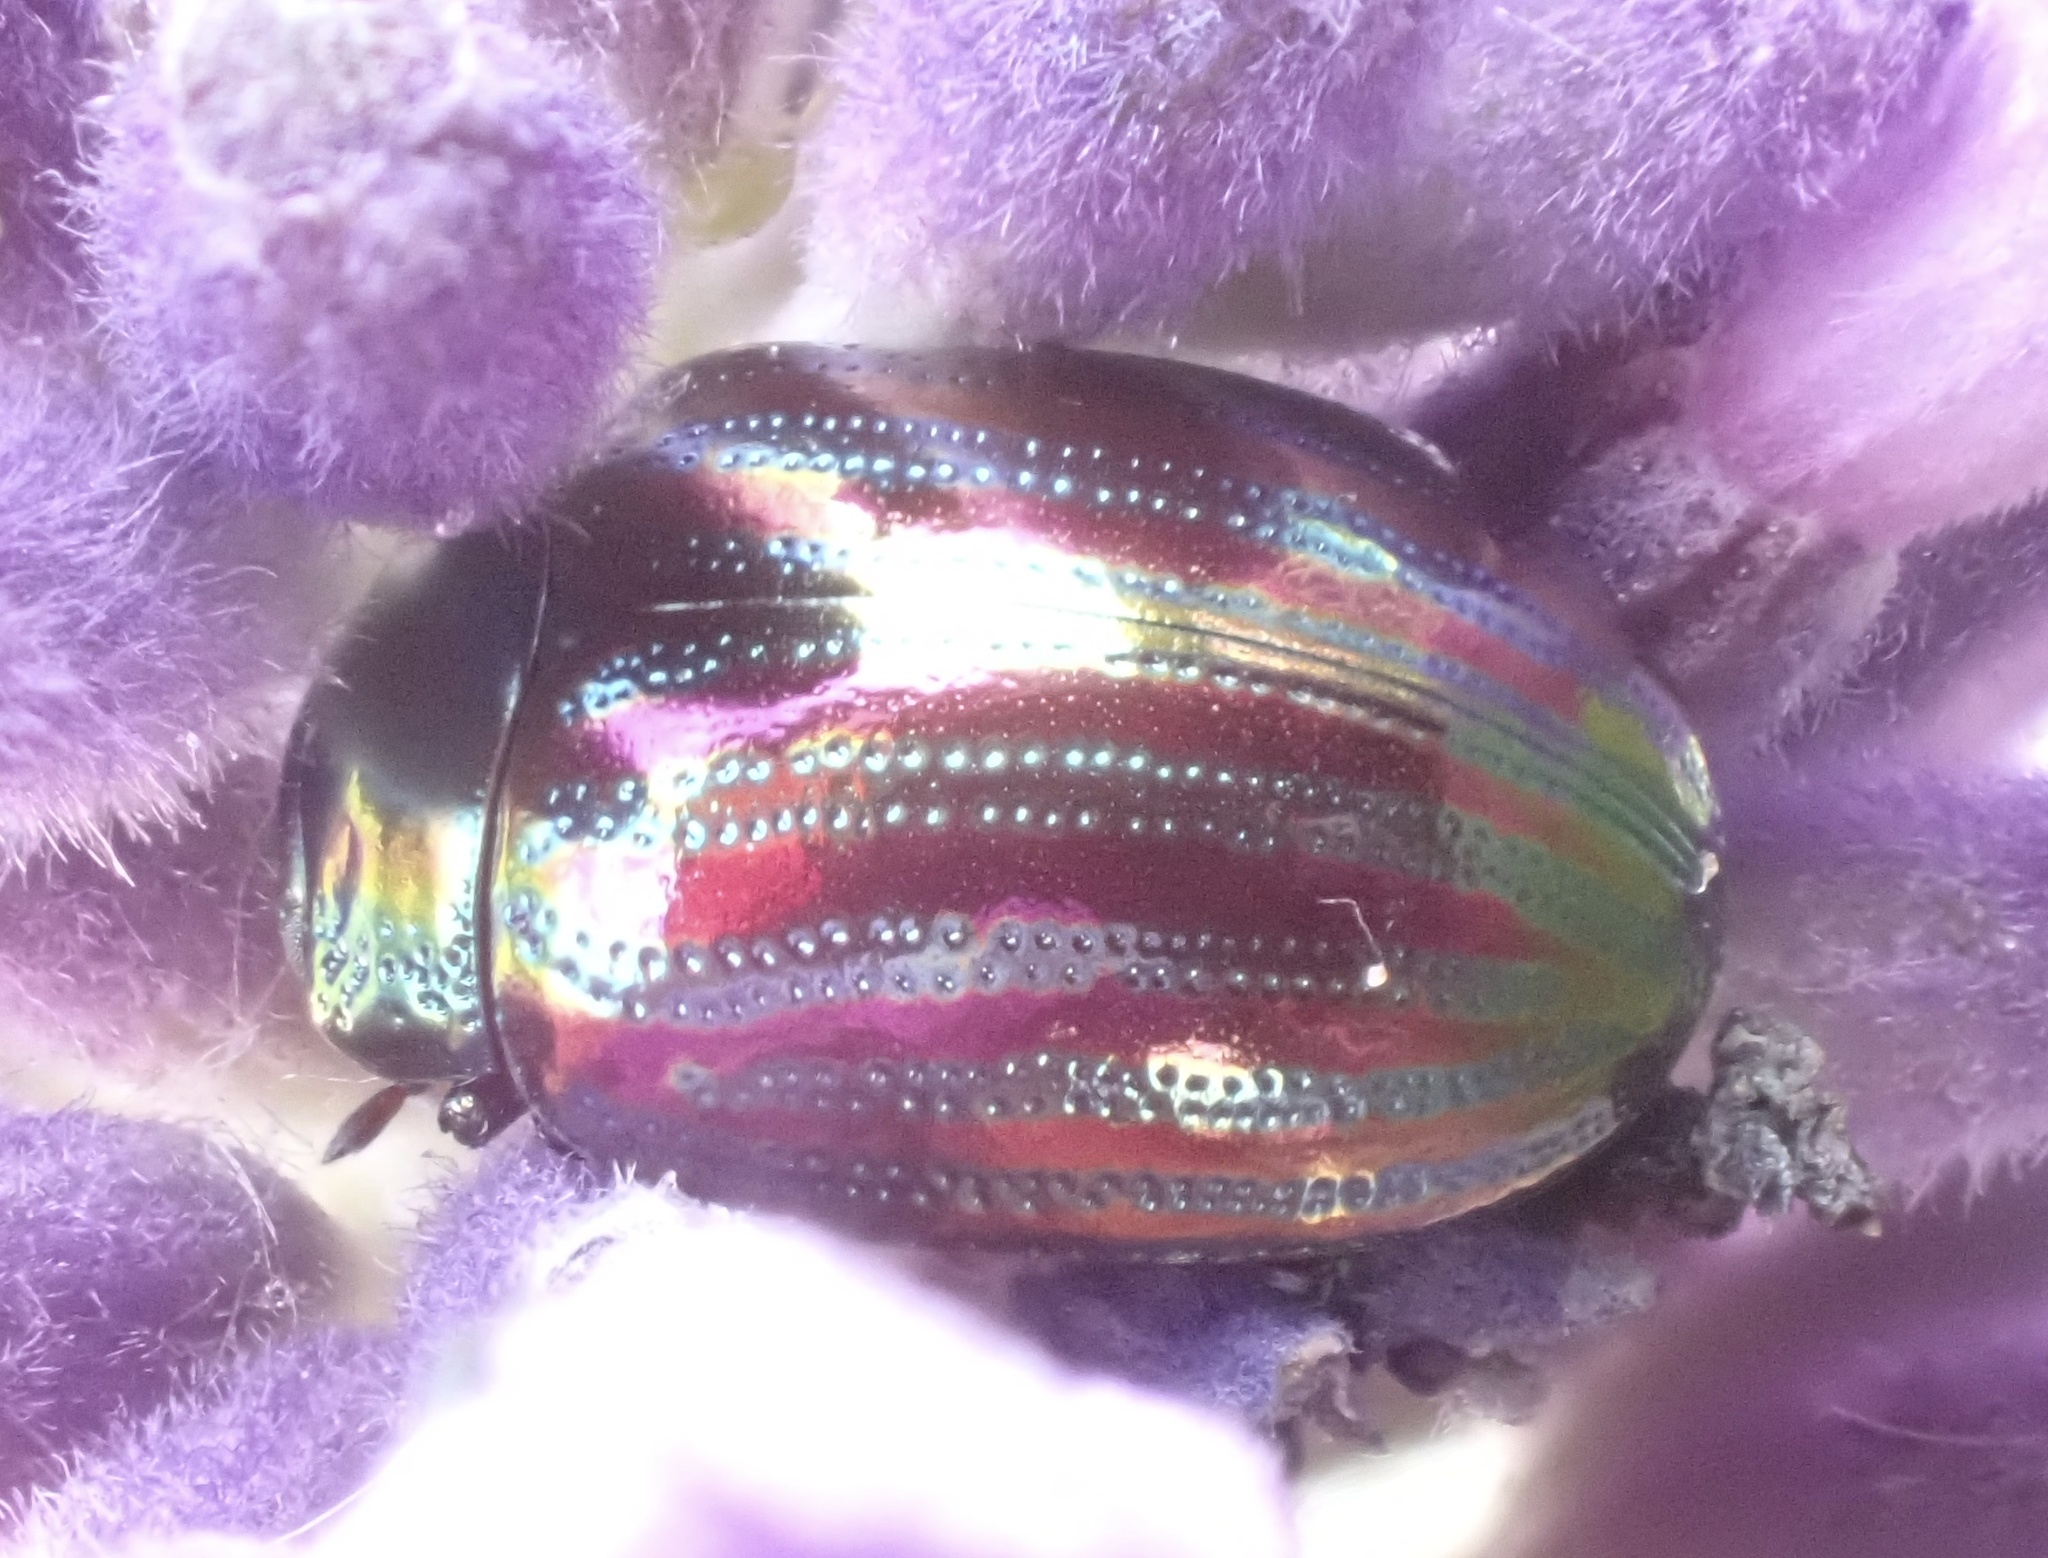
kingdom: Animalia
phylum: Arthropoda
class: Insecta
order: Coleoptera
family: Chrysomelidae
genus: Chrysolina
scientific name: Chrysolina americana
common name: Rosemary beetle
